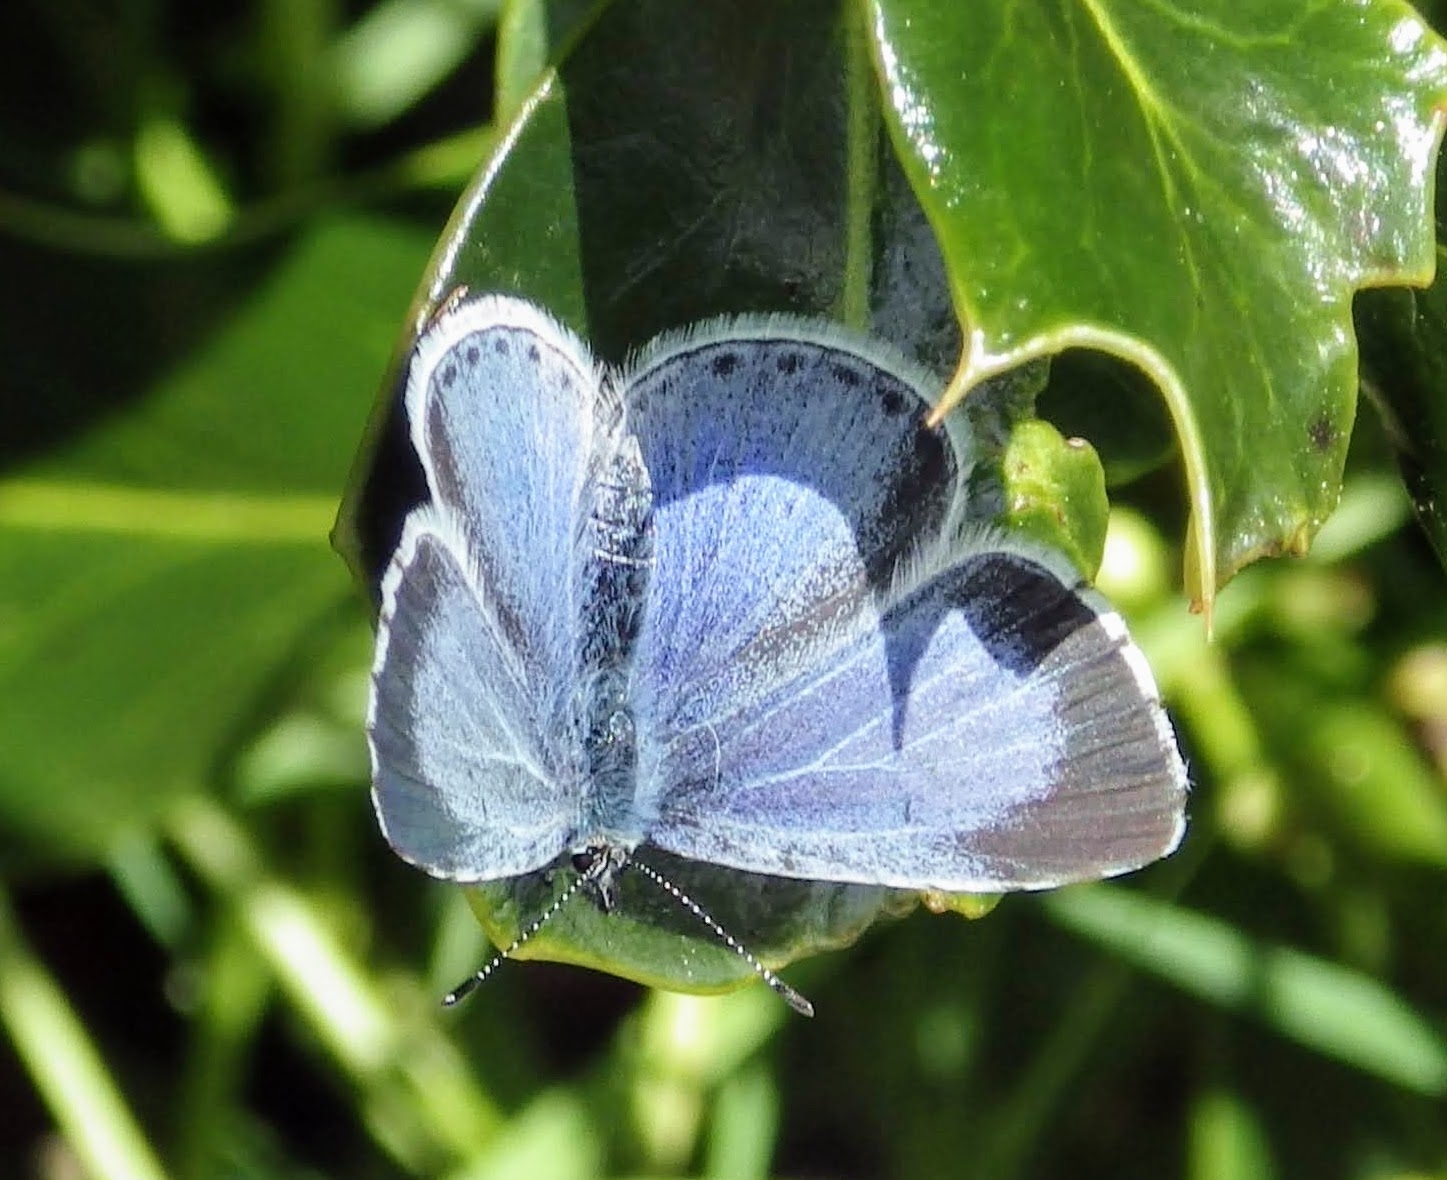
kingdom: Animalia
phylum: Arthropoda
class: Insecta
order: Lepidoptera
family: Lycaenidae
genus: Celastrina
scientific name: Celastrina argiolus
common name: Holly blue
